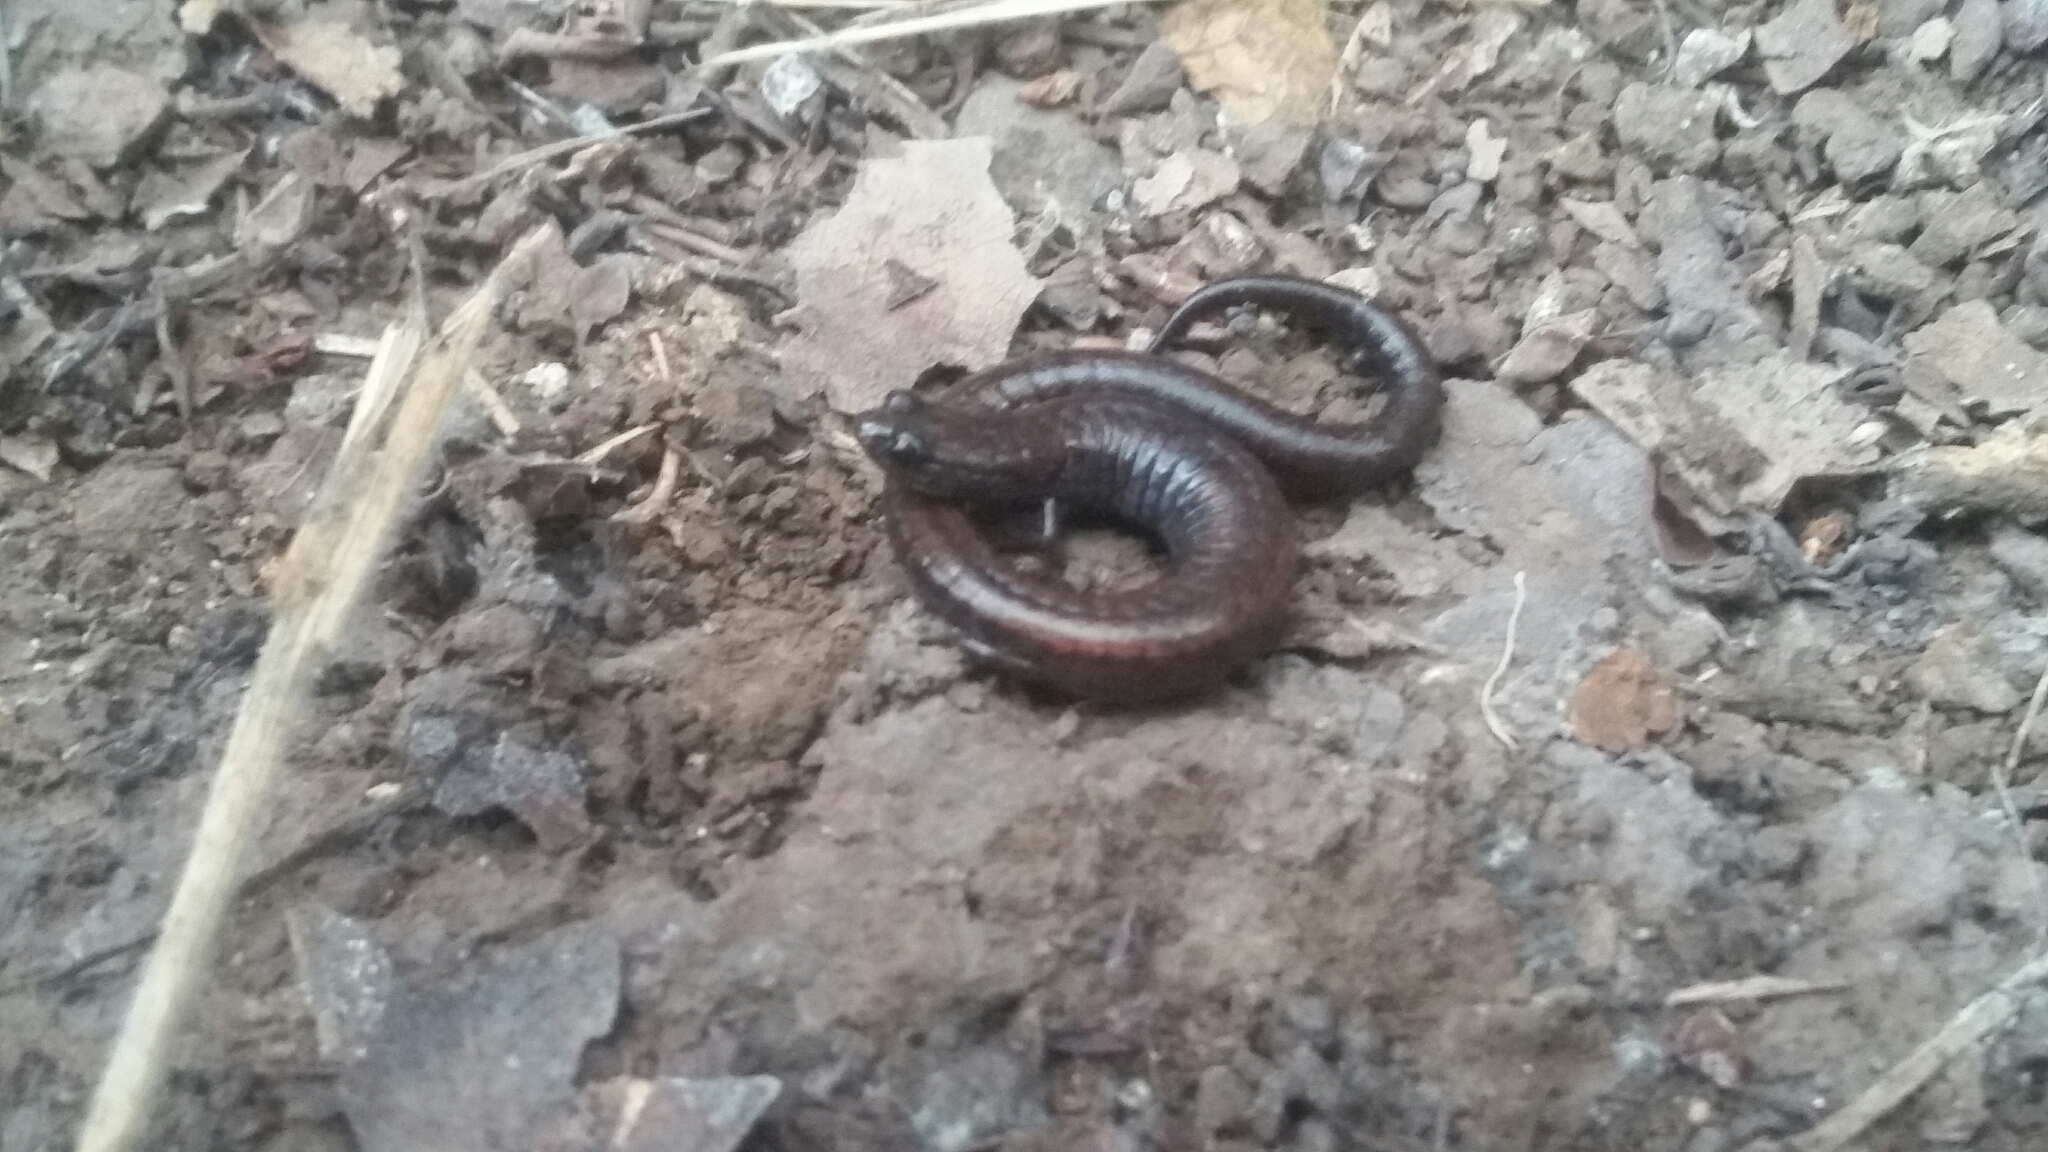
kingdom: Animalia
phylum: Chordata
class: Amphibia
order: Caudata
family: Plethodontidae
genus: Batrachoseps
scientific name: Batrachoseps attenuatus
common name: California slender salamander
